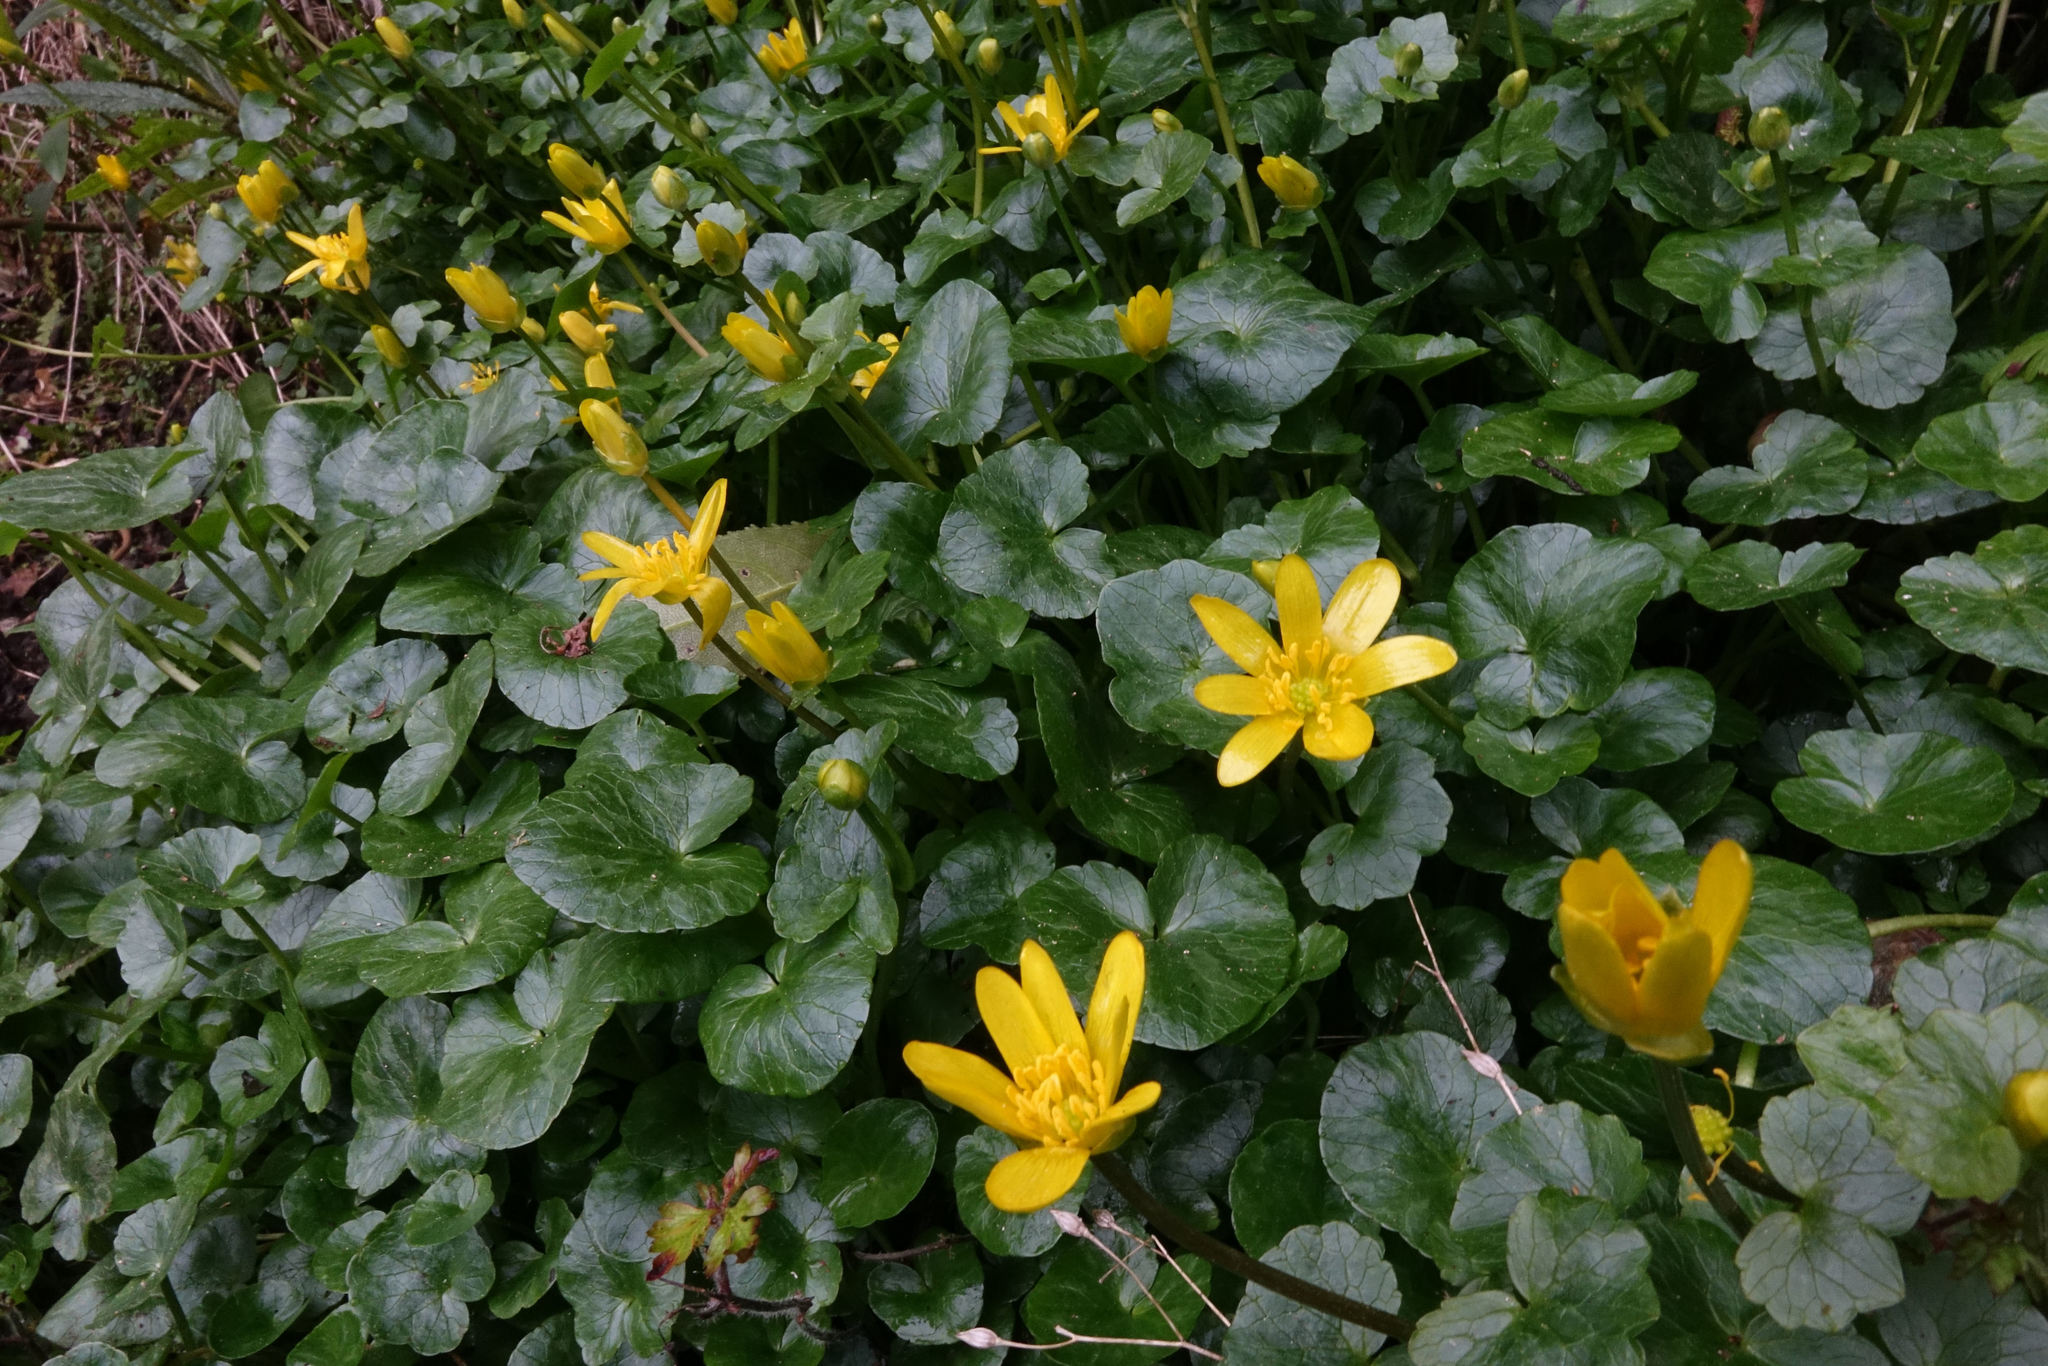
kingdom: Plantae
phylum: Tracheophyta
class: Magnoliopsida
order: Ranunculales
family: Ranunculaceae
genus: Ficaria
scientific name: Ficaria grandiflora
